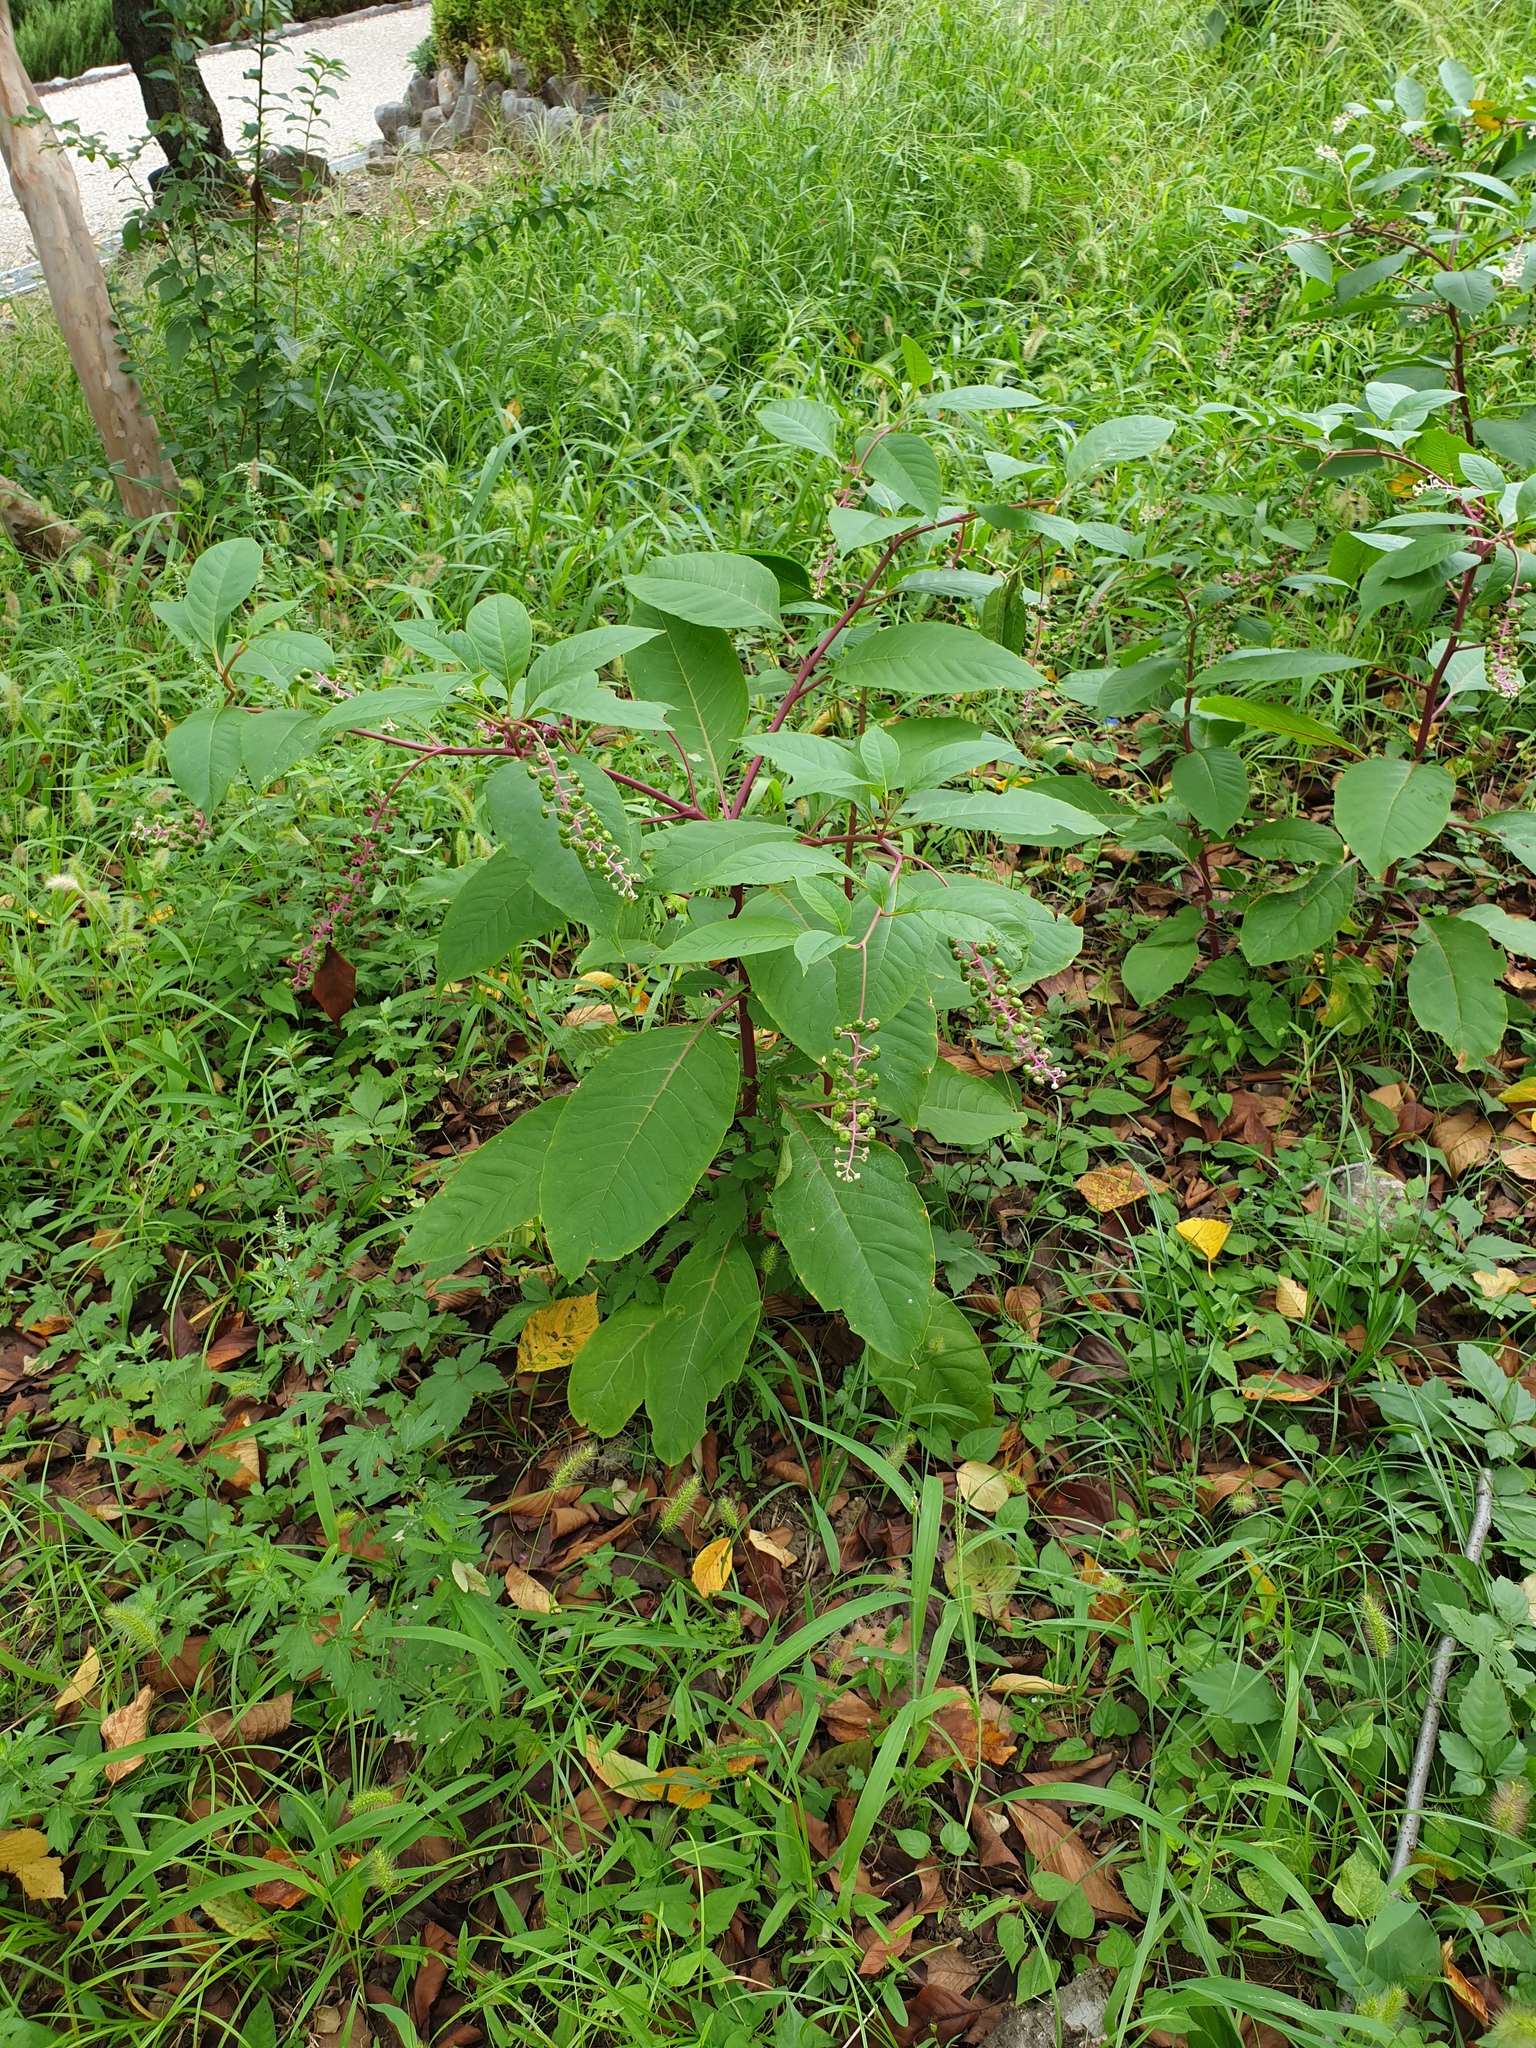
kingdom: Plantae
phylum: Tracheophyta
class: Magnoliopsida
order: Caryophyllales
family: Phytolaccaceae
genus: Phytolacca
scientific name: Phytolacca americana
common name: American pokeweed
